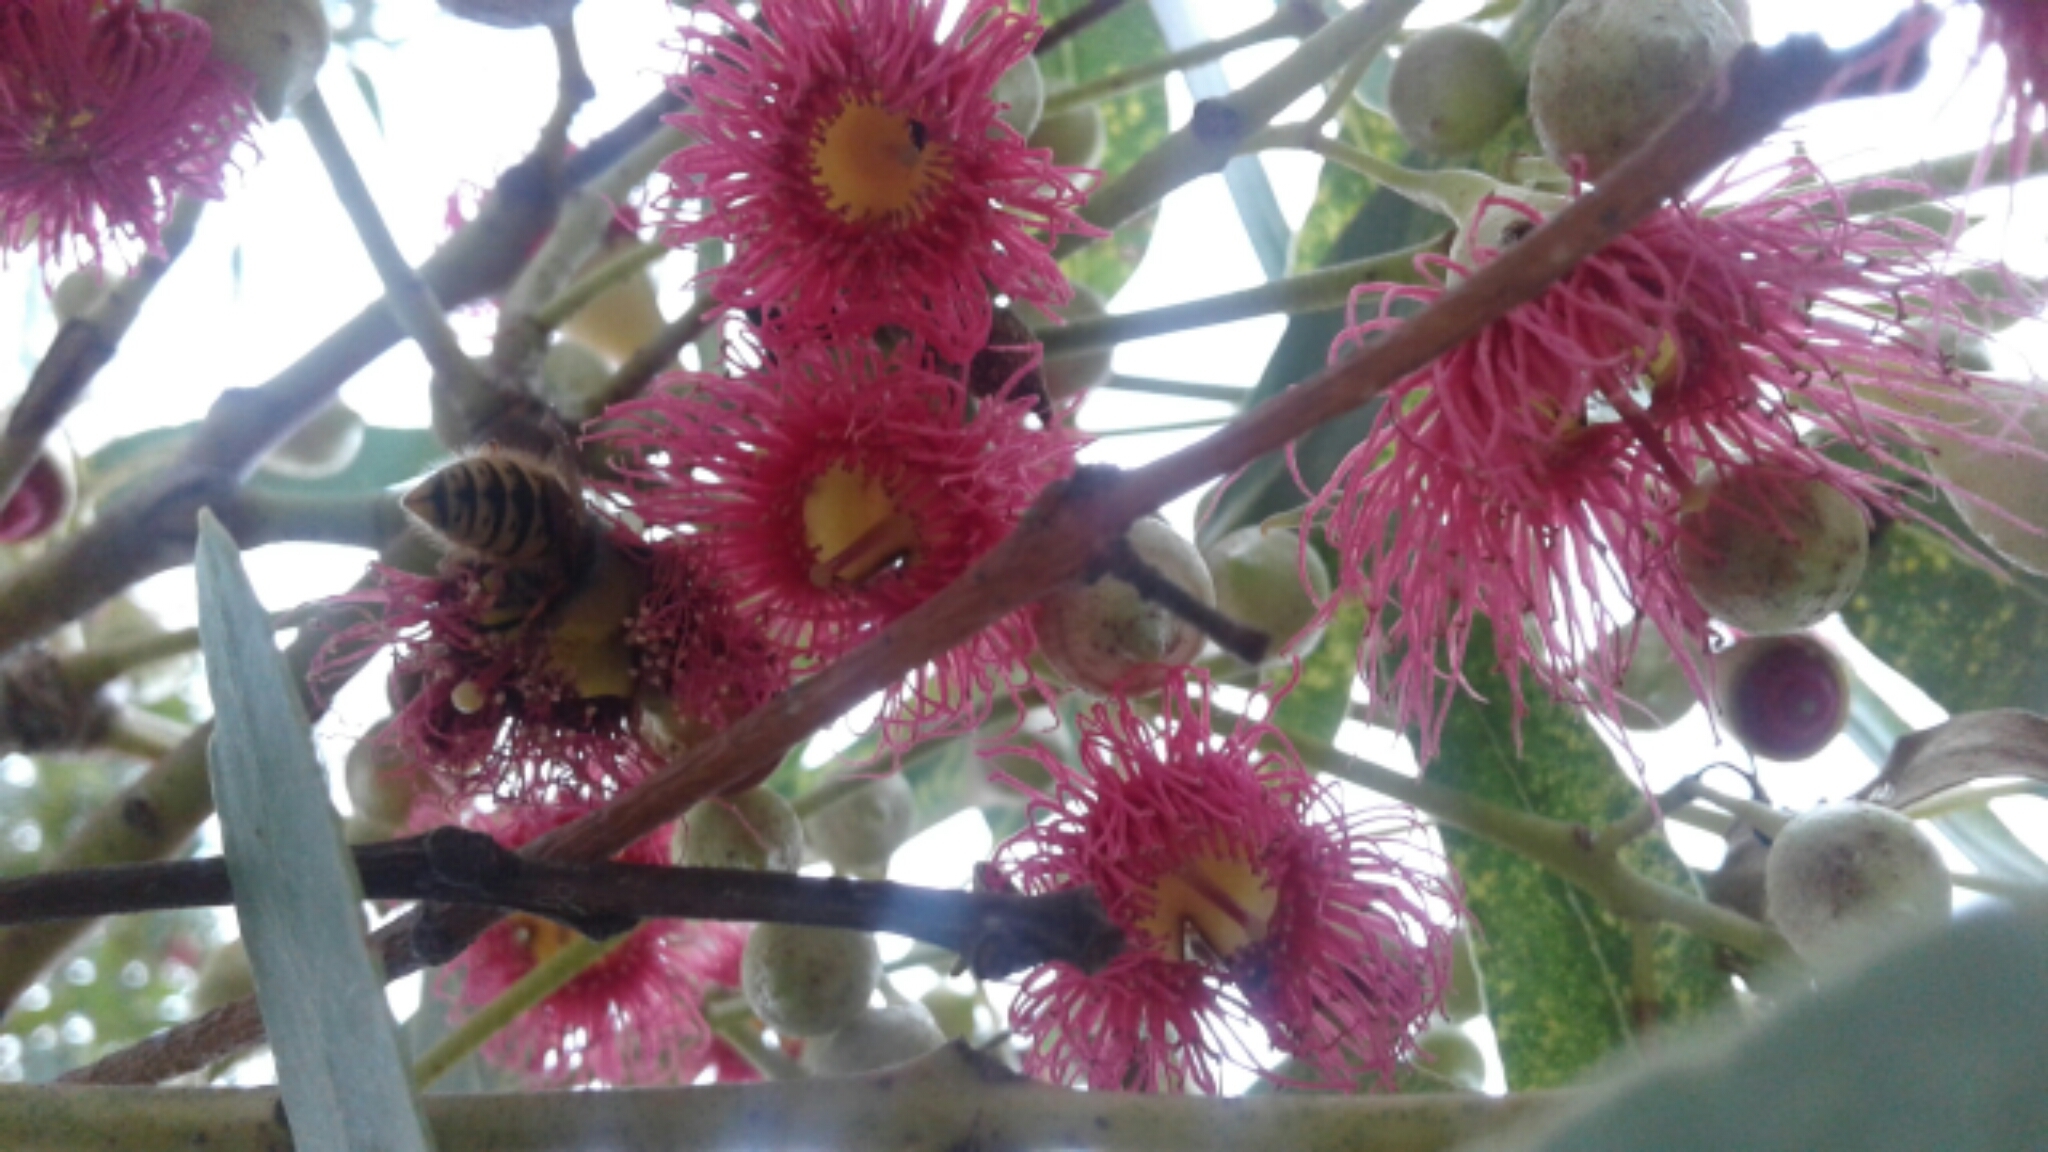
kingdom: Plantae
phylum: Tracheophyta
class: Magnoliopsida
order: Myrtales
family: Myrtaceae
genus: Eucalyptus
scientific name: Eucalyptus leucoxylon
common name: Blue gum
